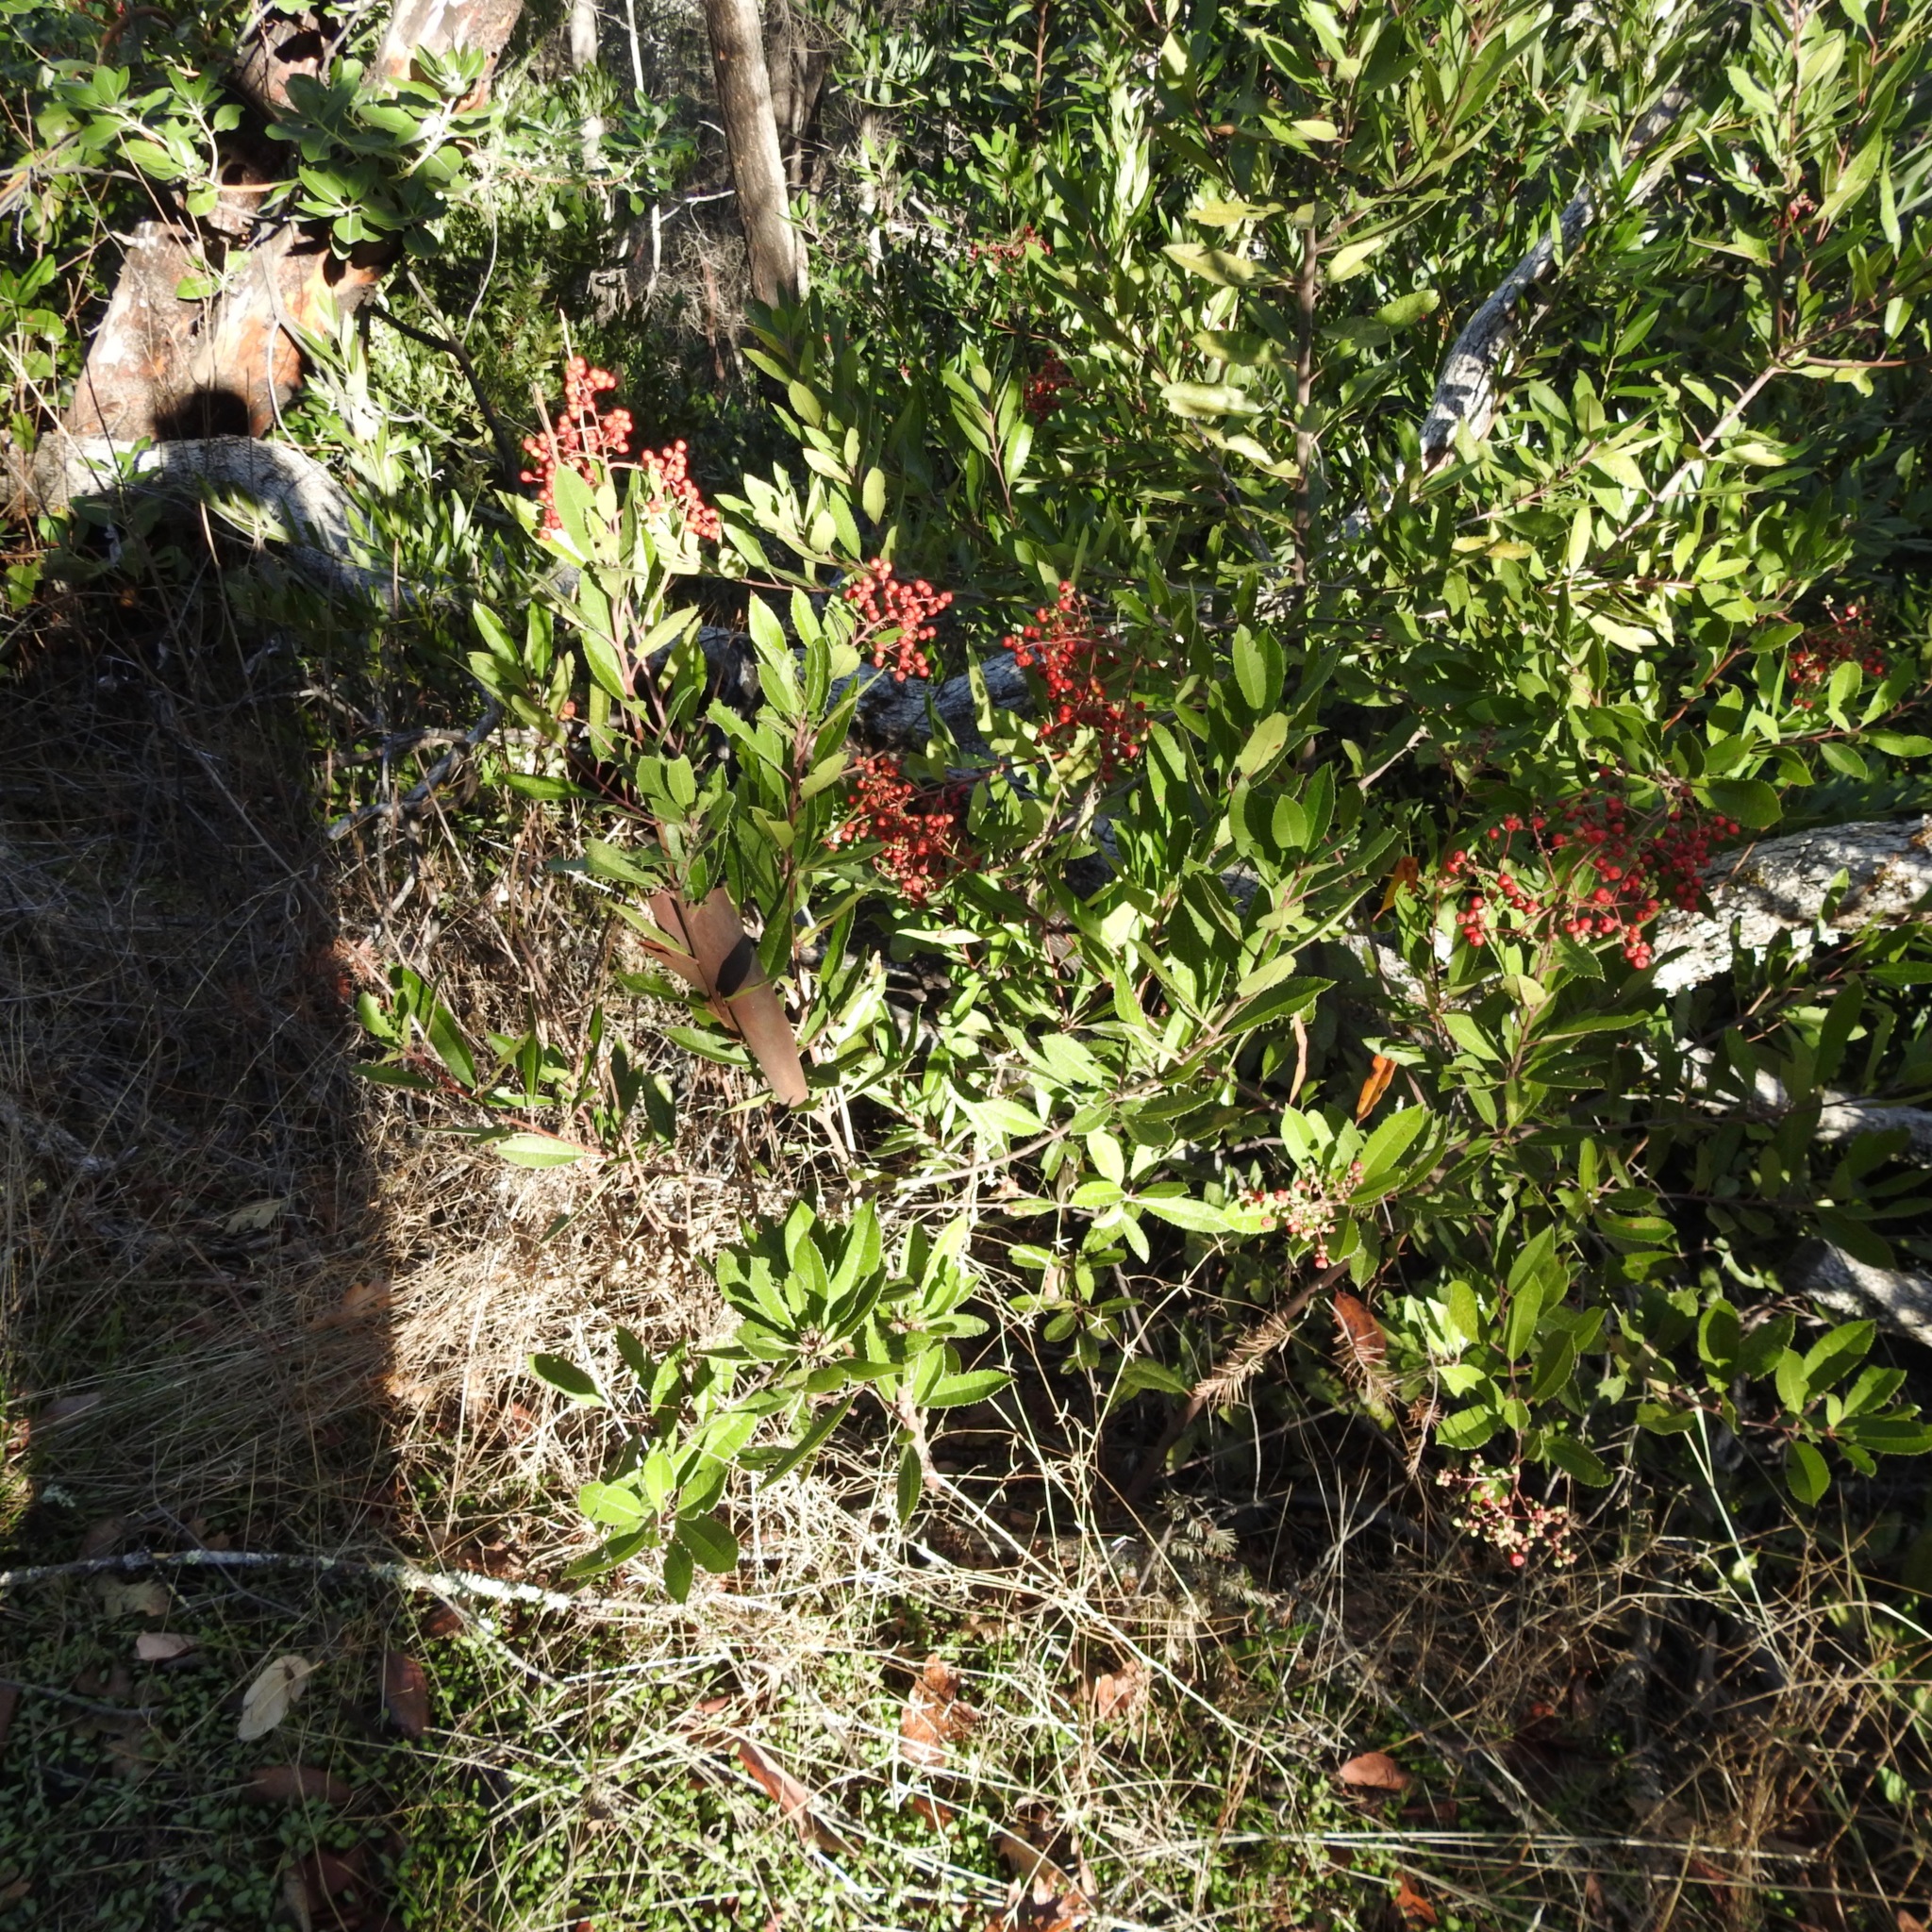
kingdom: Plantae
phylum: Tracheophyta
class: Magnoliopsida
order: Rosales
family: Rosaceae
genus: Heteromeles
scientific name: Heteromeles arbutifolia
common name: California-holly
